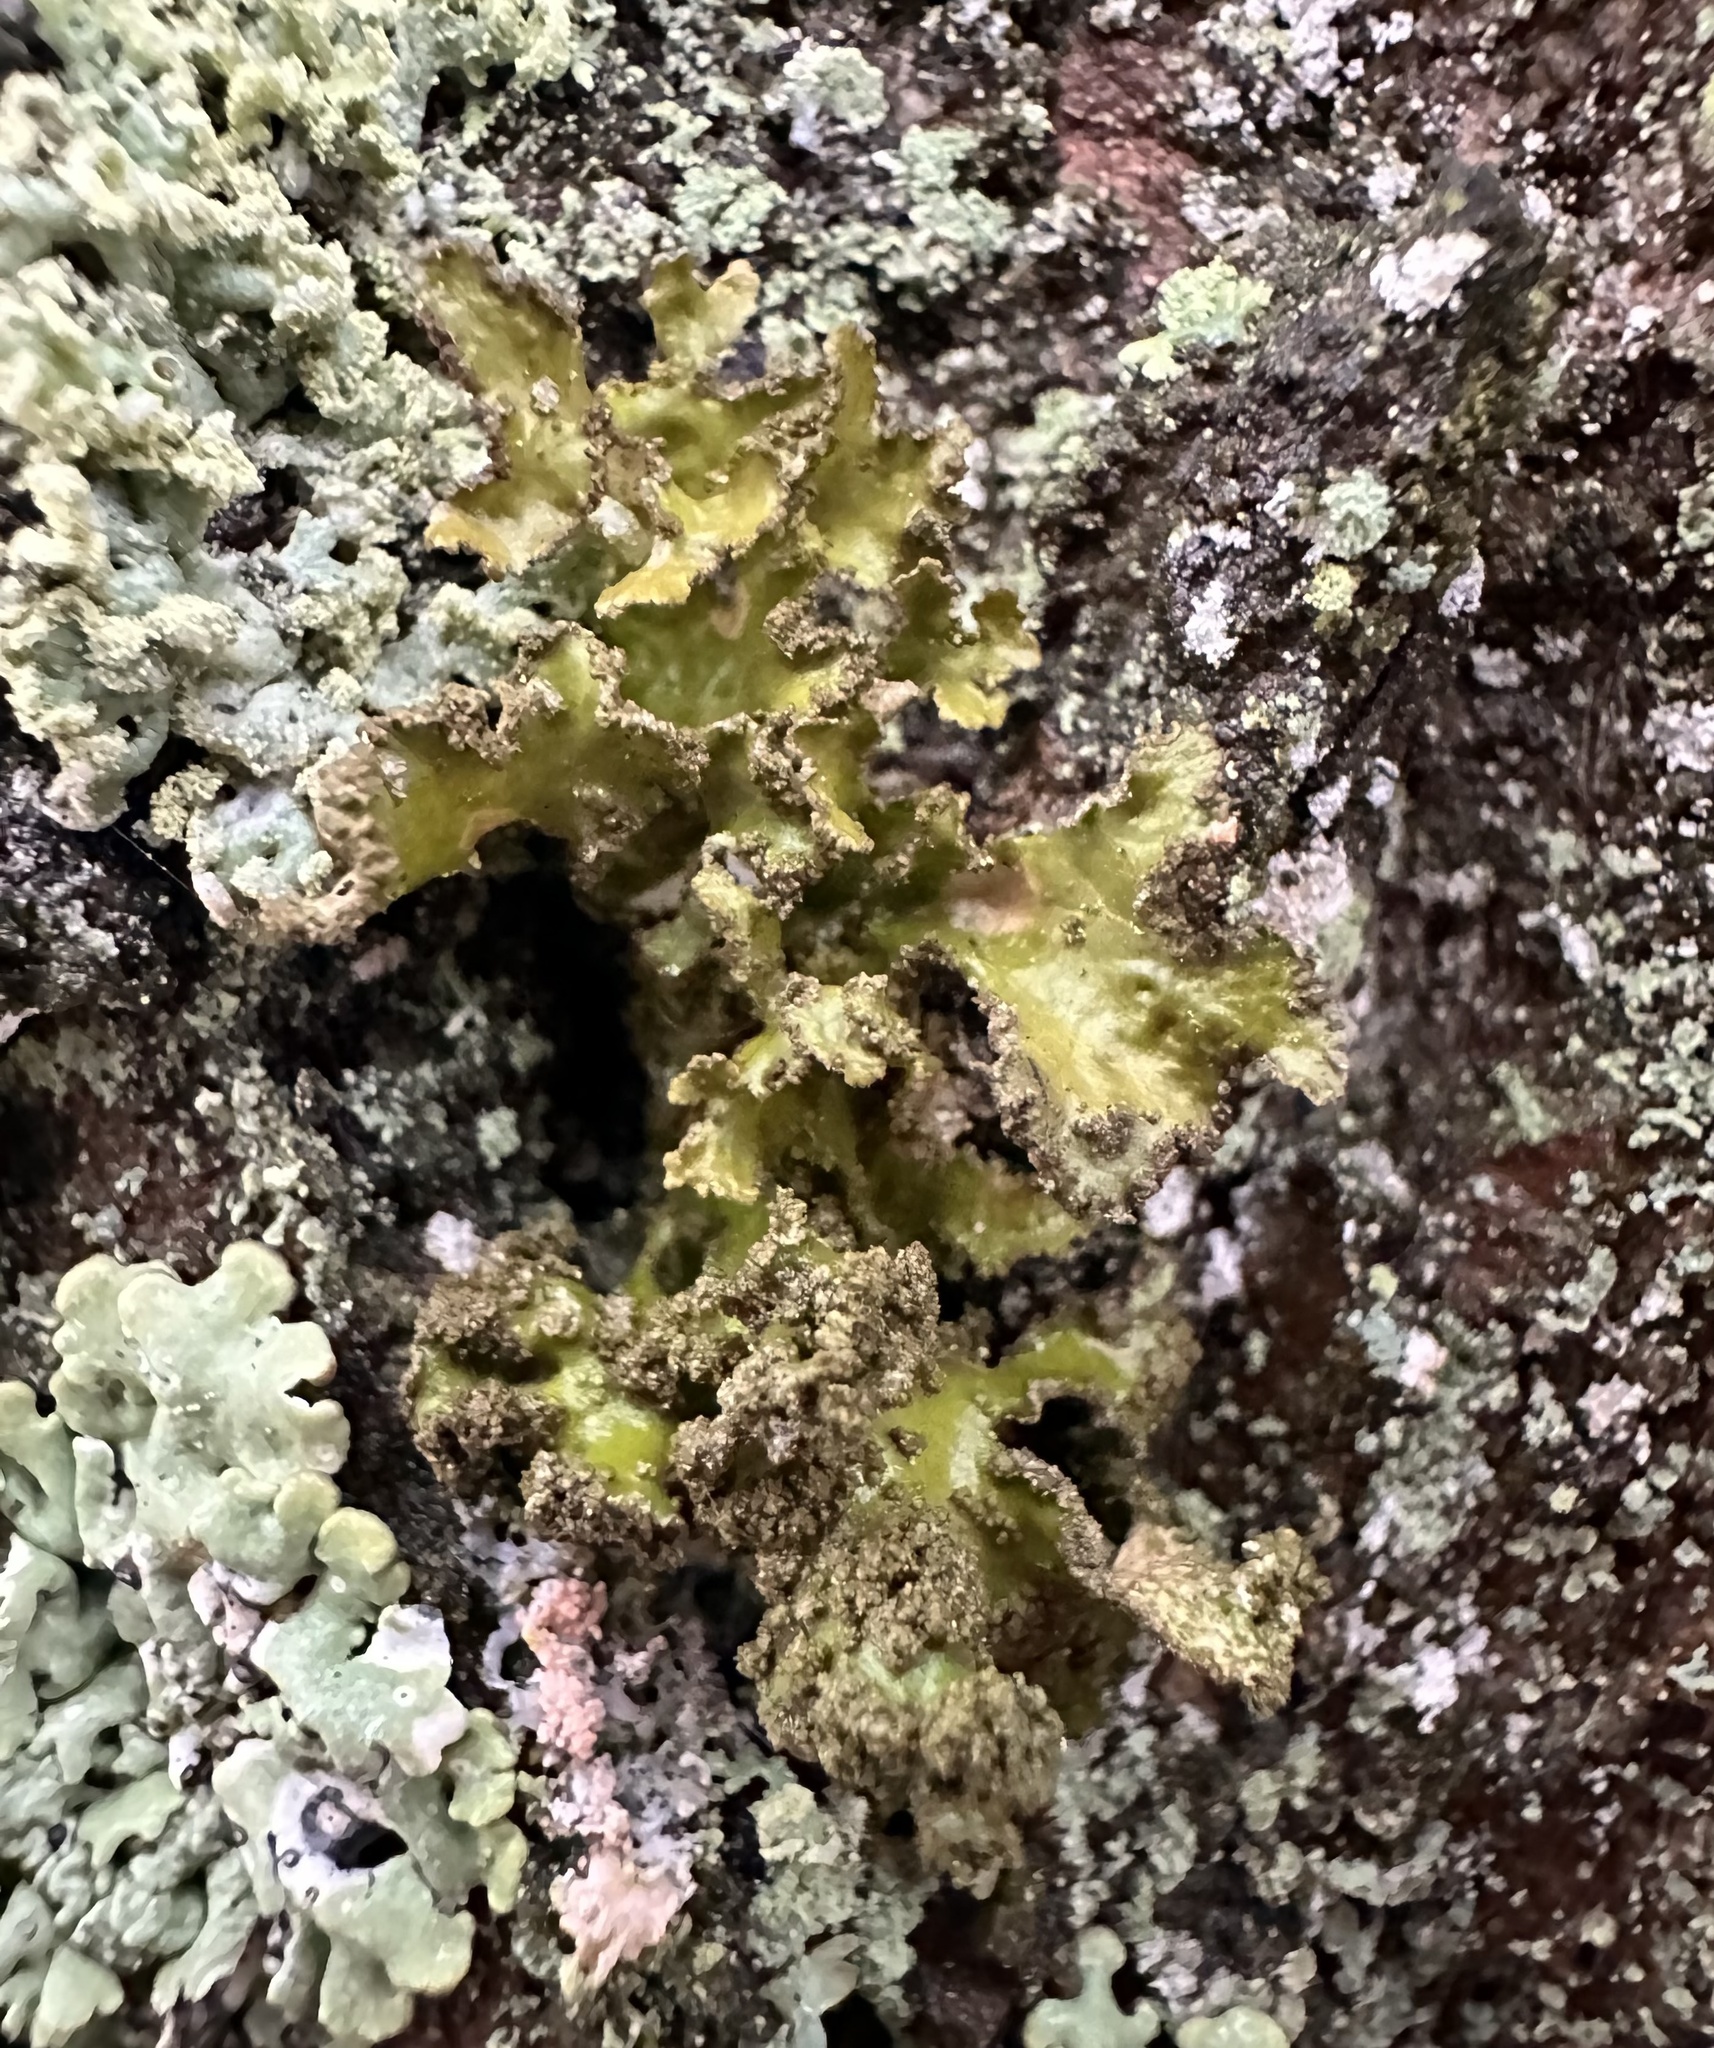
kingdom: Fungi
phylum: Ascomycota
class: Lecanoromycetes
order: Lecanorales
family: Parmeliaceae
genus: Nephromopsis
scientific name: Nephromopsis chlorophylla
